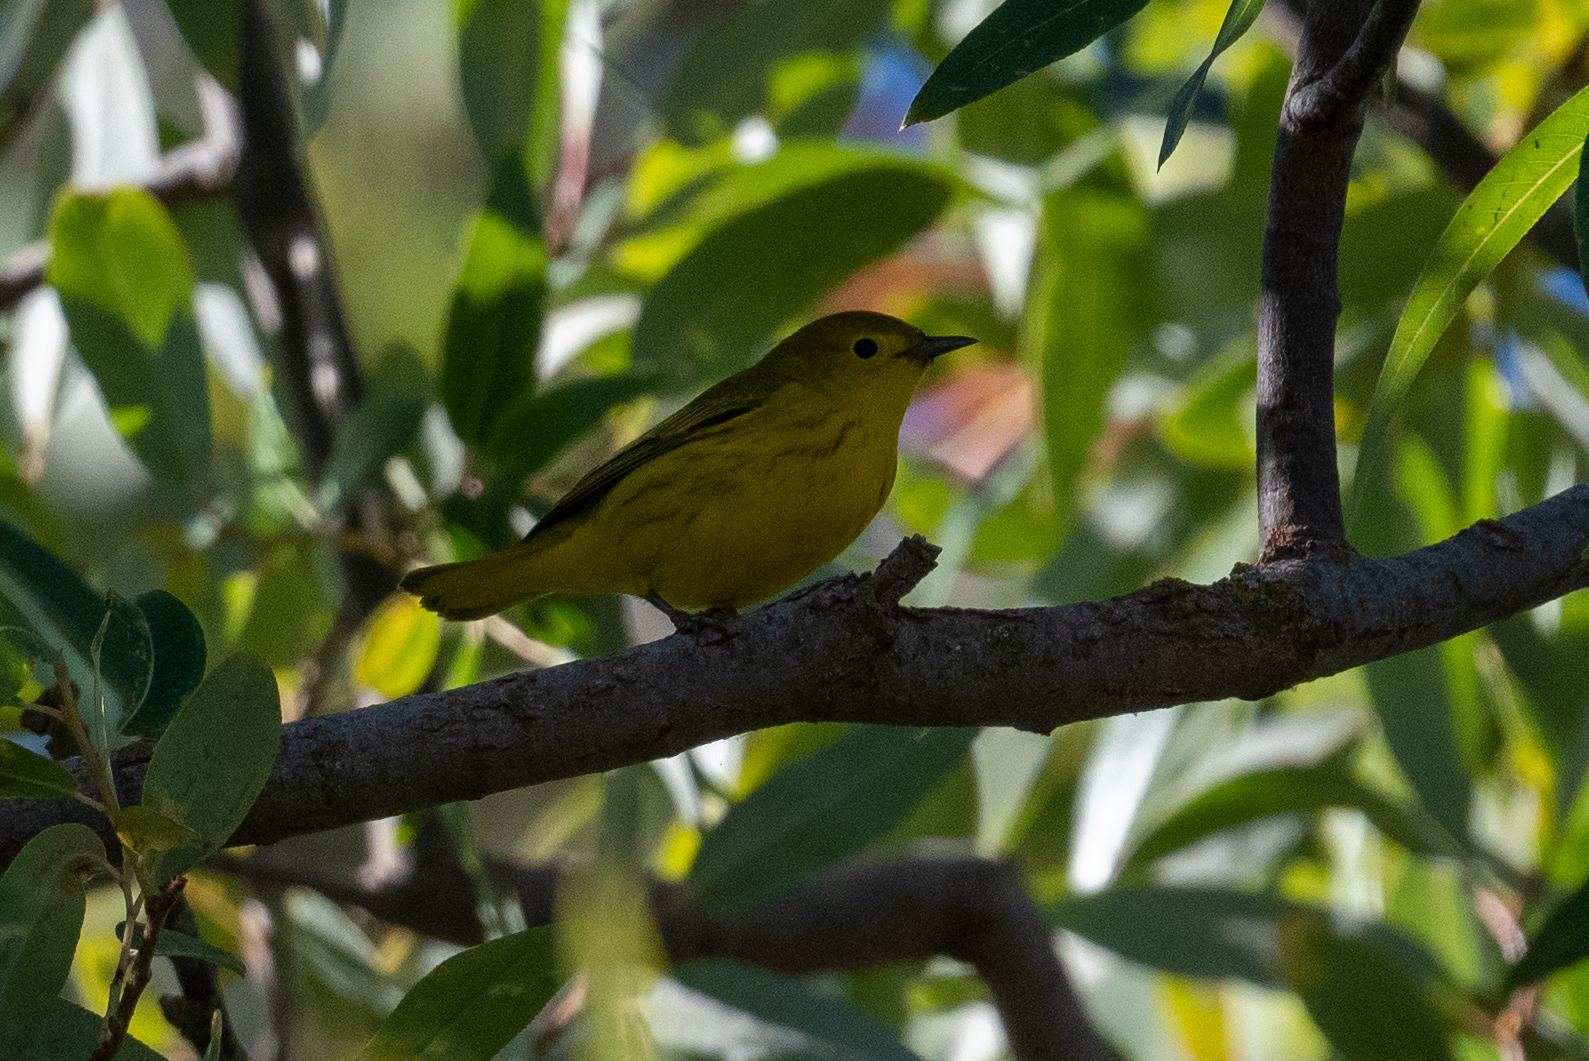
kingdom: Animalia
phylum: Chordata
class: Aves
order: Passeriformes
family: Parulidae
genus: Setophaga
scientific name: Setophaga petechia
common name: Yellow warbler
